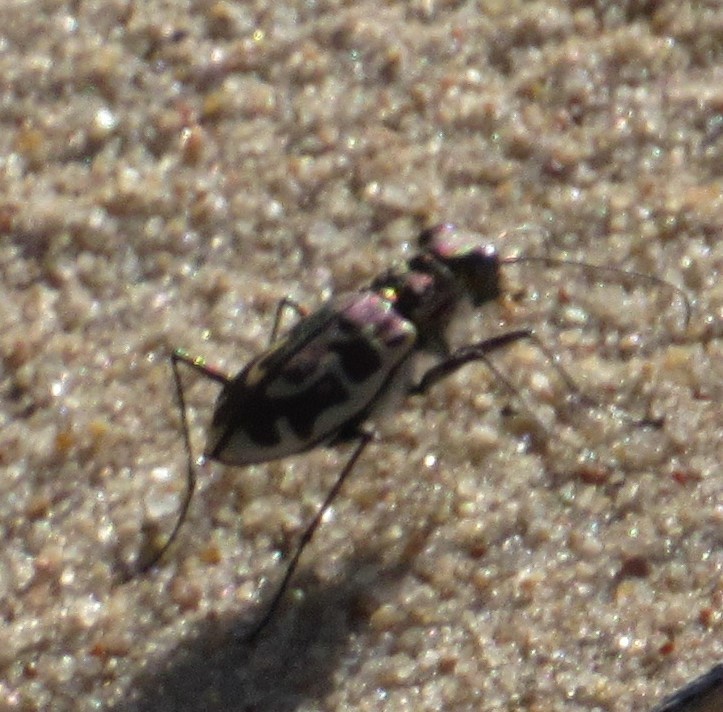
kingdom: Animalia
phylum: Arthropoda
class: Insecta
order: Coleoptera
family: Carabidae
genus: Cicindela
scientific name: Cicindela hirticollis
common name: Hairy-necked tiger beetle
